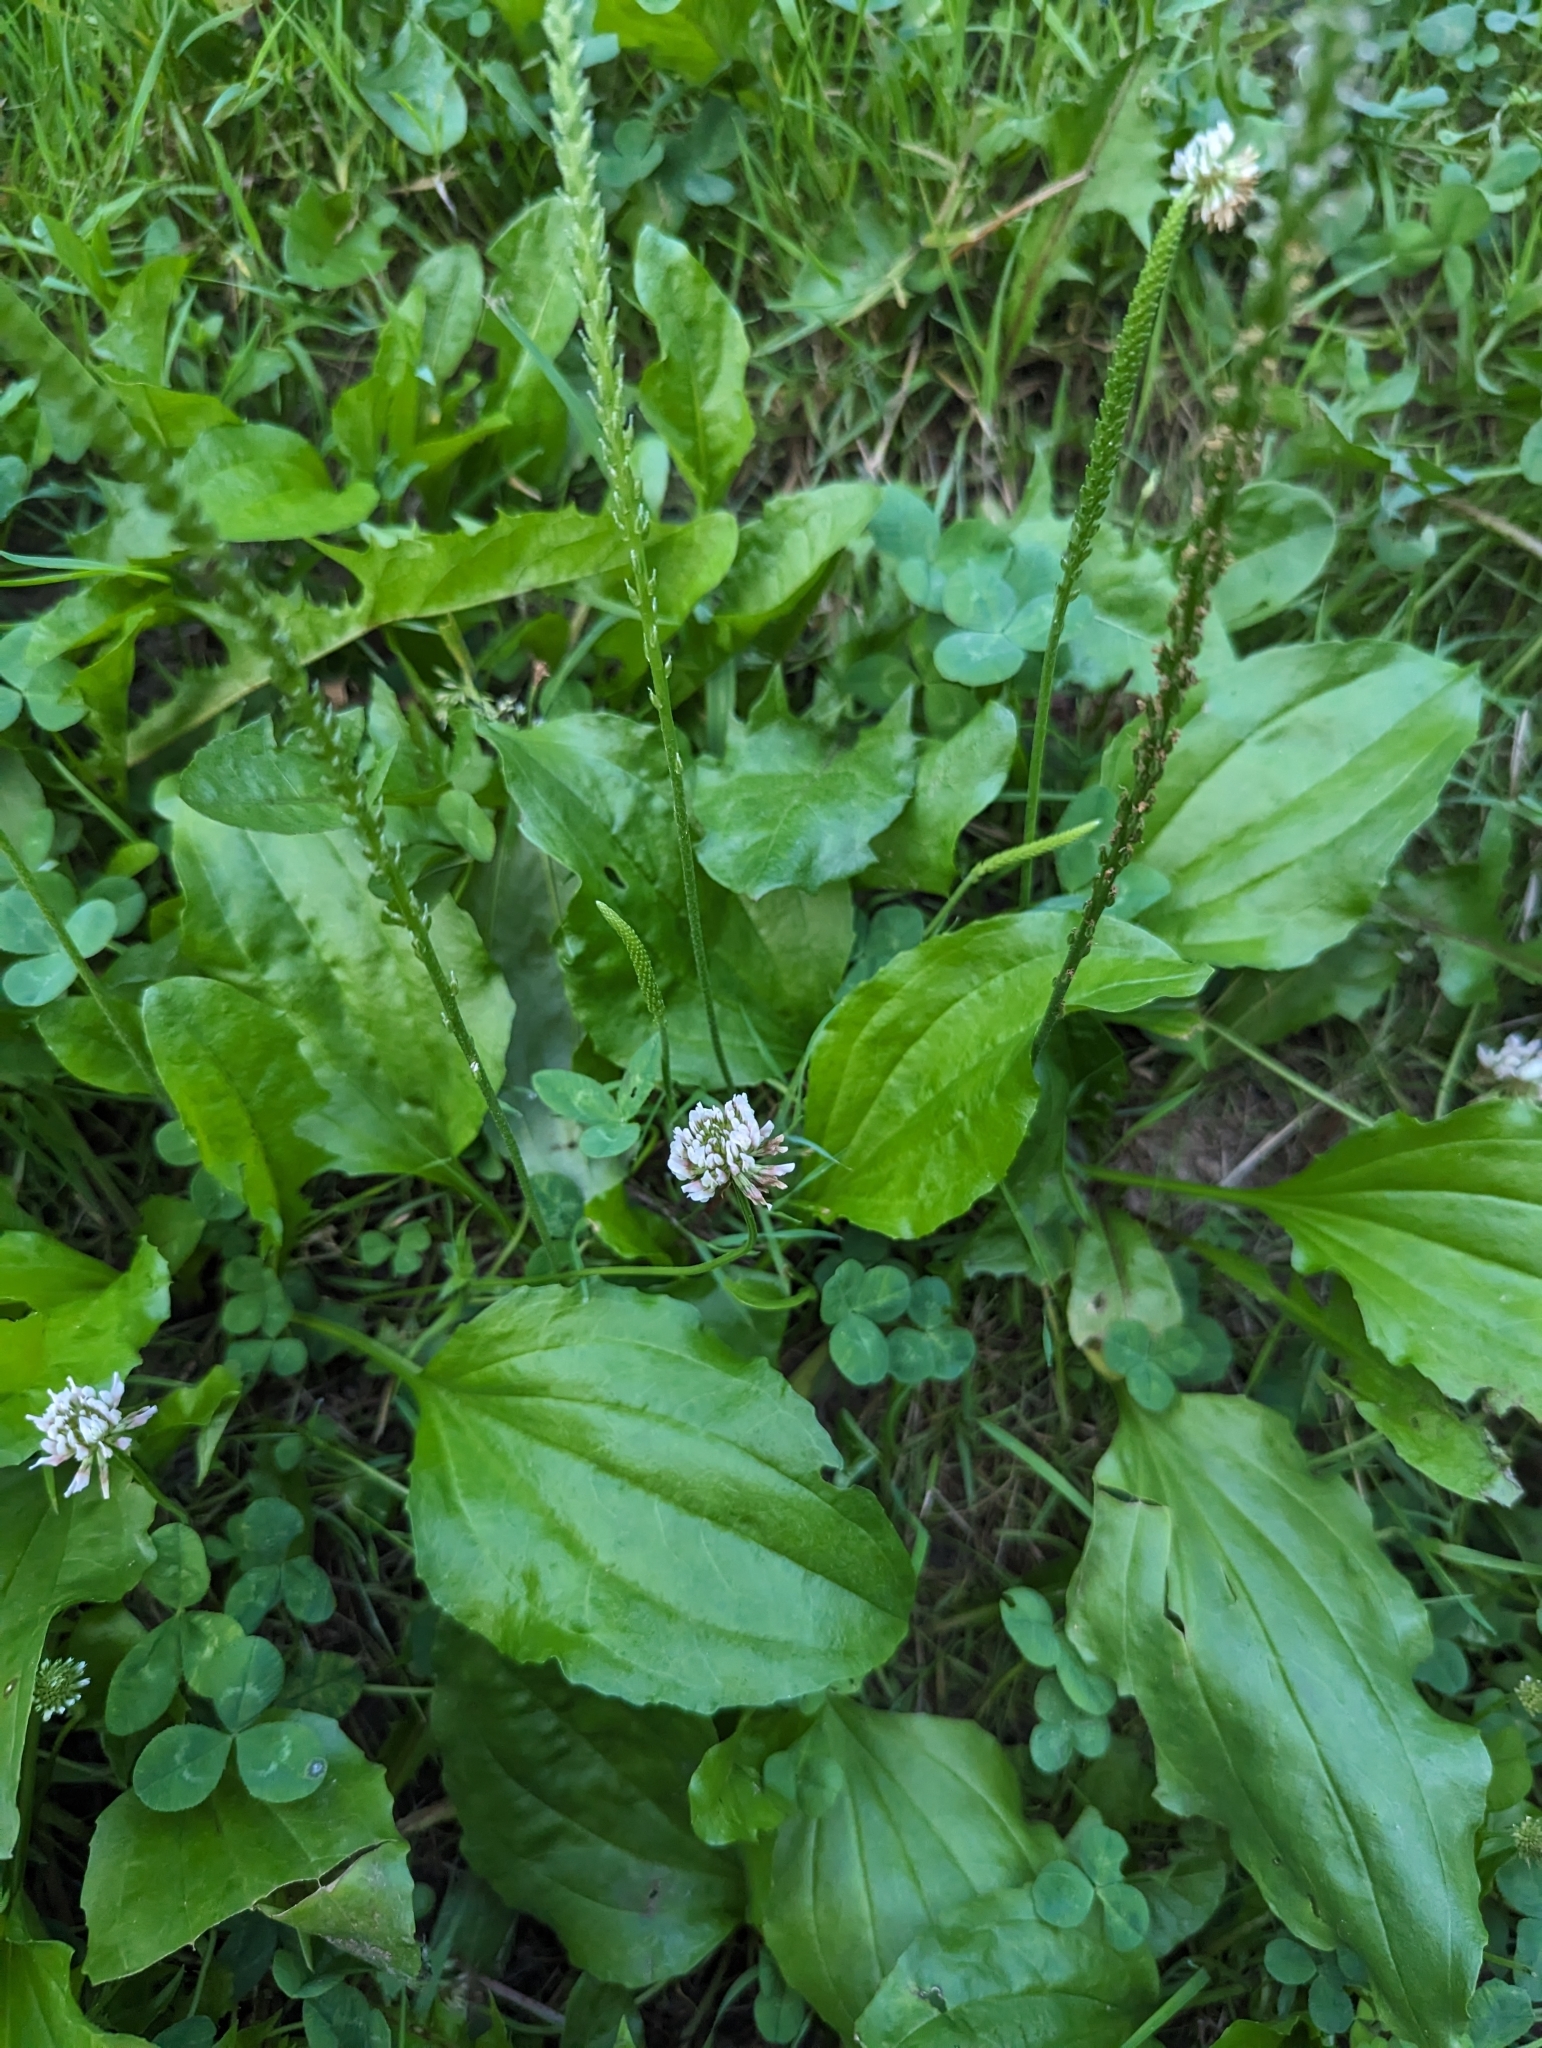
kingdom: Plantae
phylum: Tracheophyta
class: Magnoliopsida
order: Lamiales
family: Plantaginaceae
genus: Plantago
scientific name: Plantago rugelii
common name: American plantain
